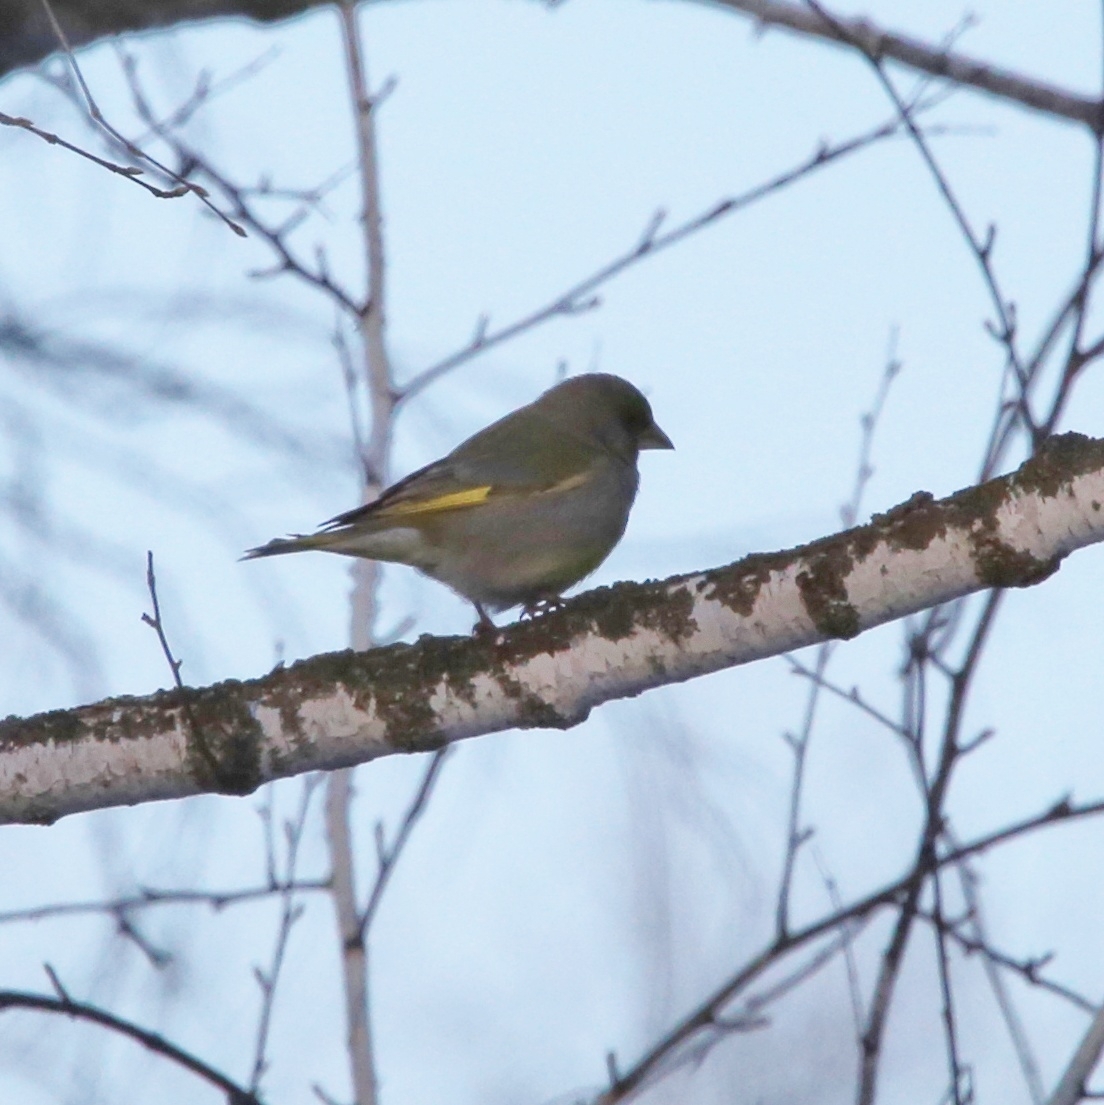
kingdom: Plantae
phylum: Tracheophyta
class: Liliopsida
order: Poales
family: Poaceae
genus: Chloris
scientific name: Chloris chloris
